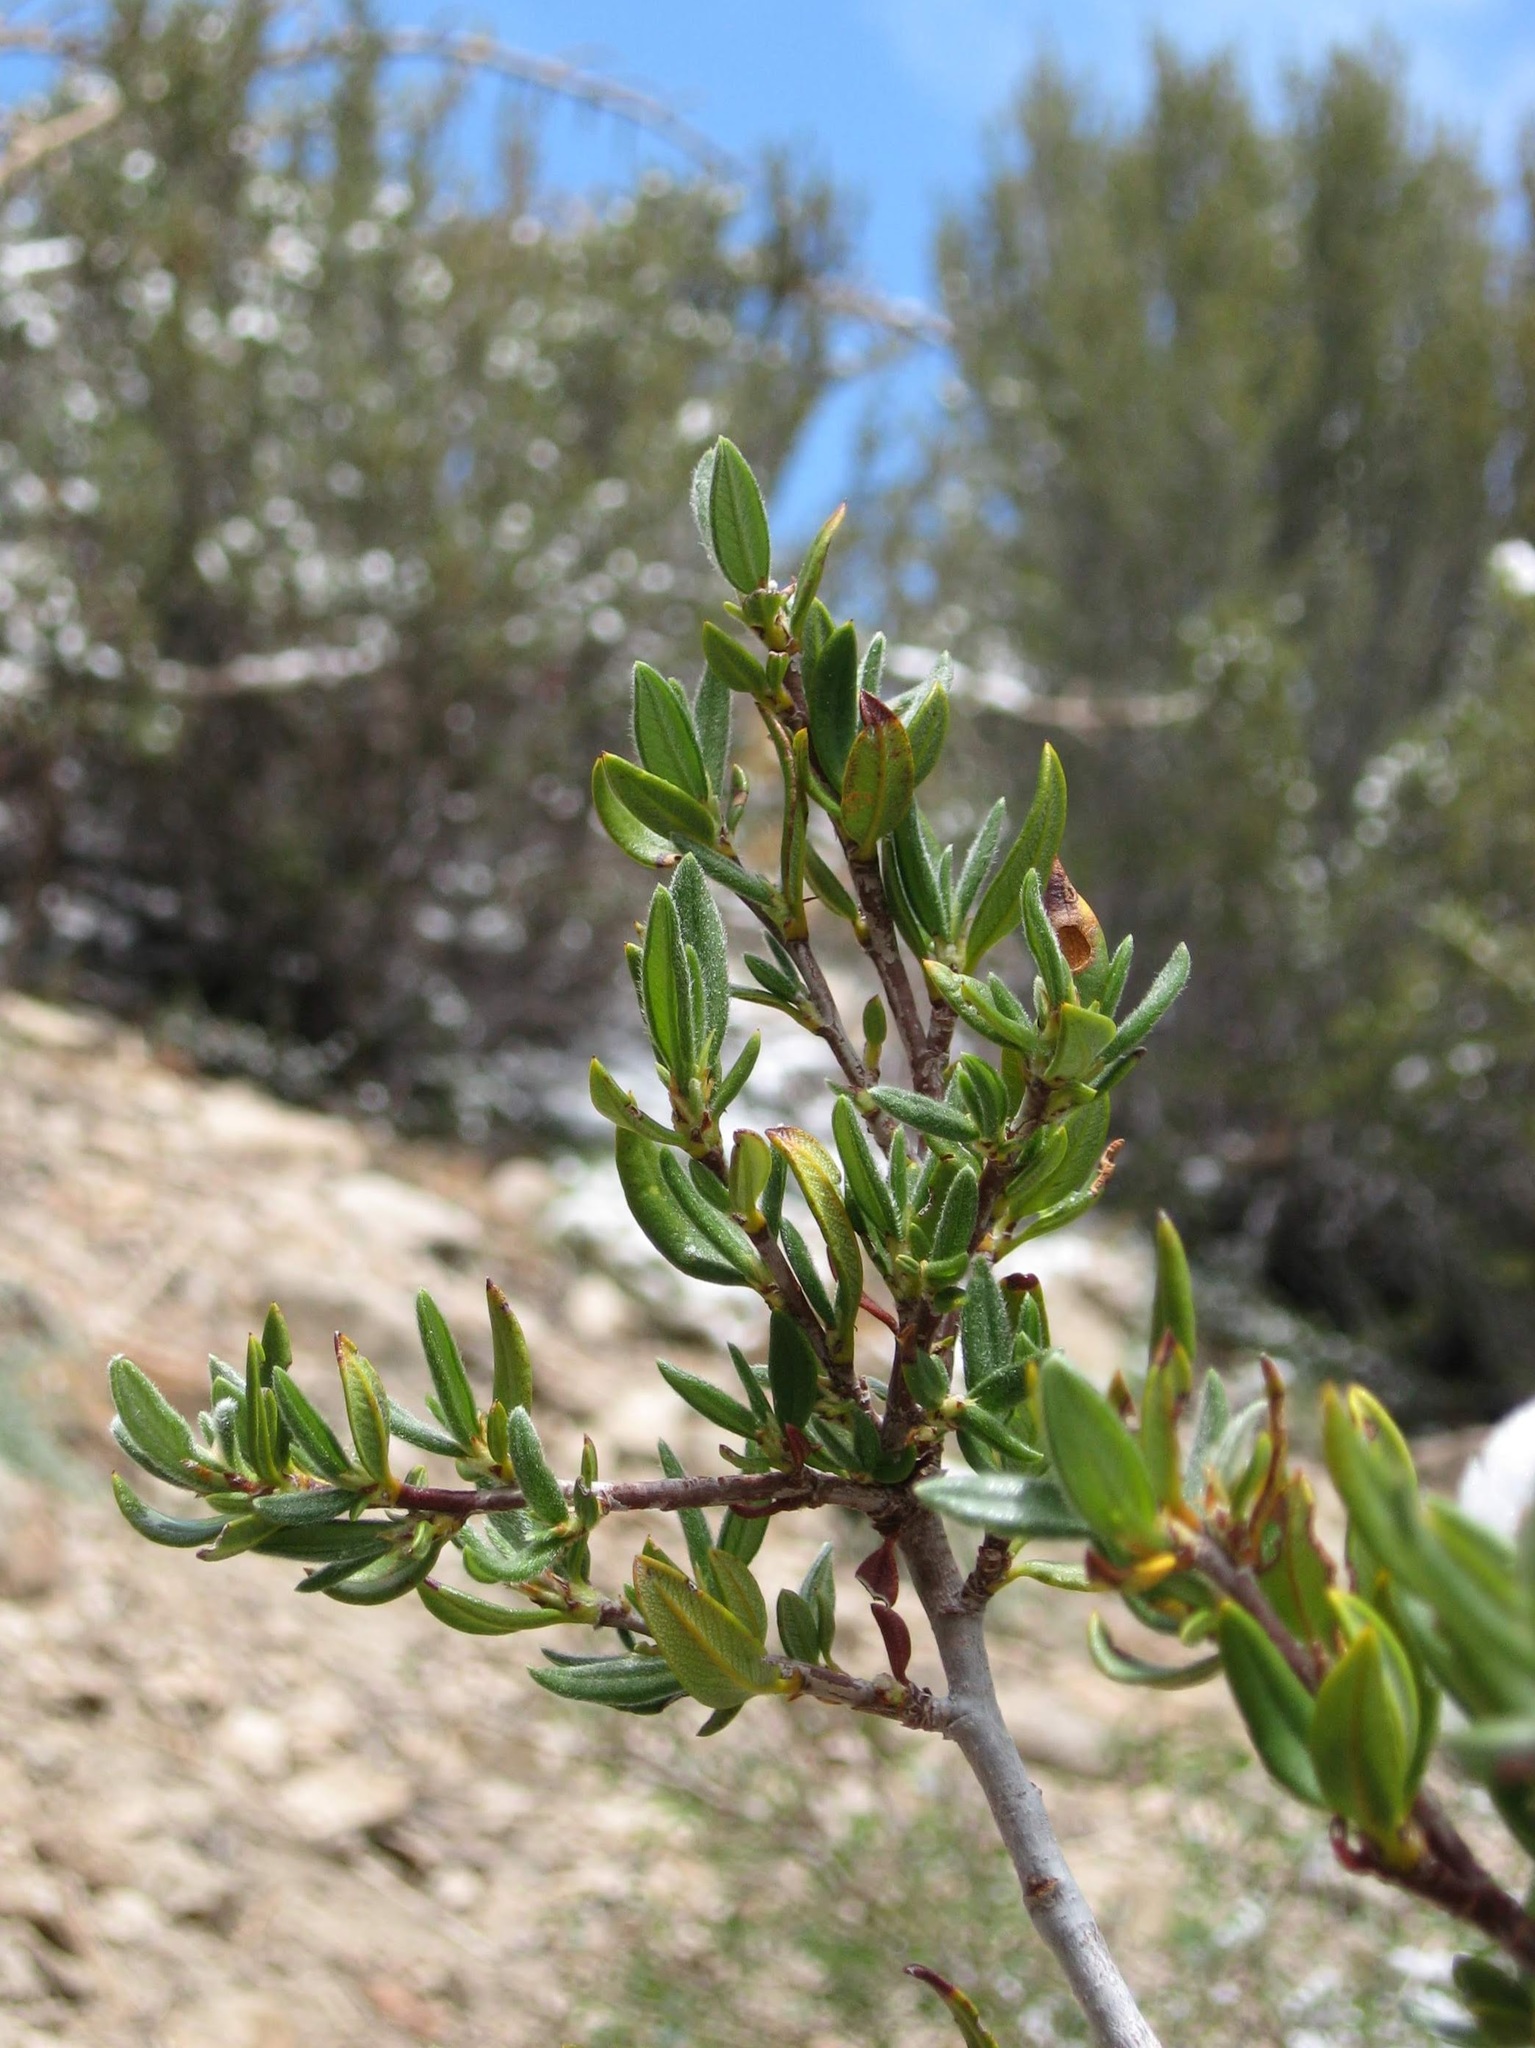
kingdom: Plantae
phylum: Tracheophyta
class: Magnoliopsida
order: Rosales
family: Rosaceae
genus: Cercocarpus
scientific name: Cercocarpus ledifolius
